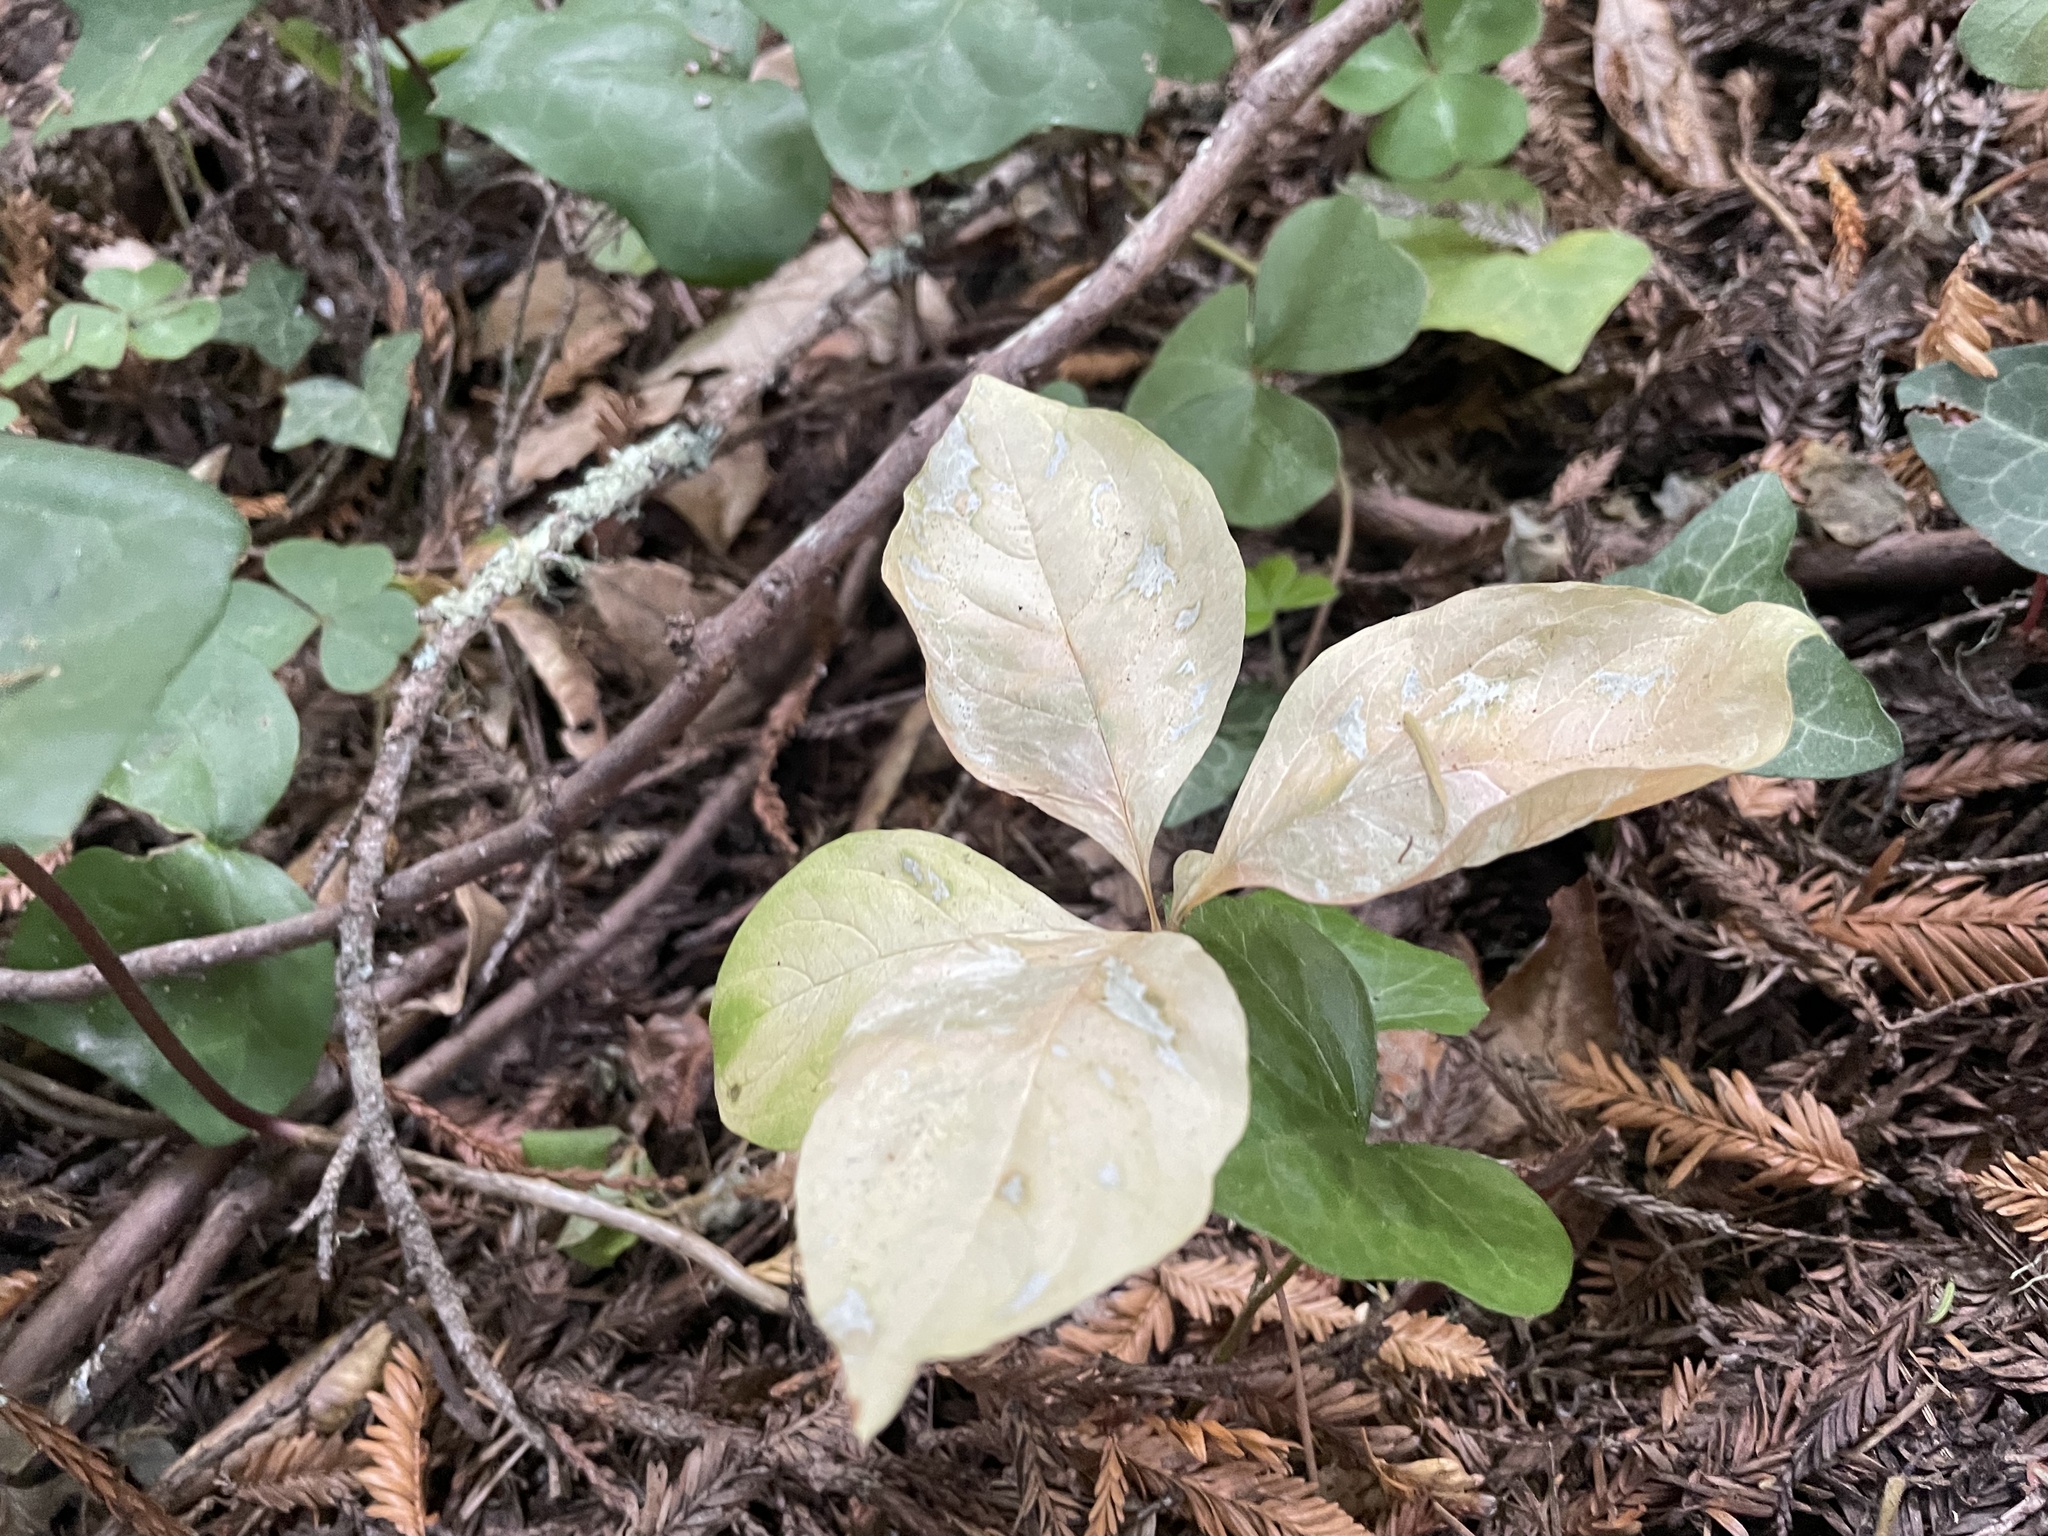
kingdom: Plantae
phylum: Tracheophyta
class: Magnoliopsida
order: Ericales
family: Primulaceae
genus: Lysimachia
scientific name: Lysimachia latifolia
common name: Pacific starflower
